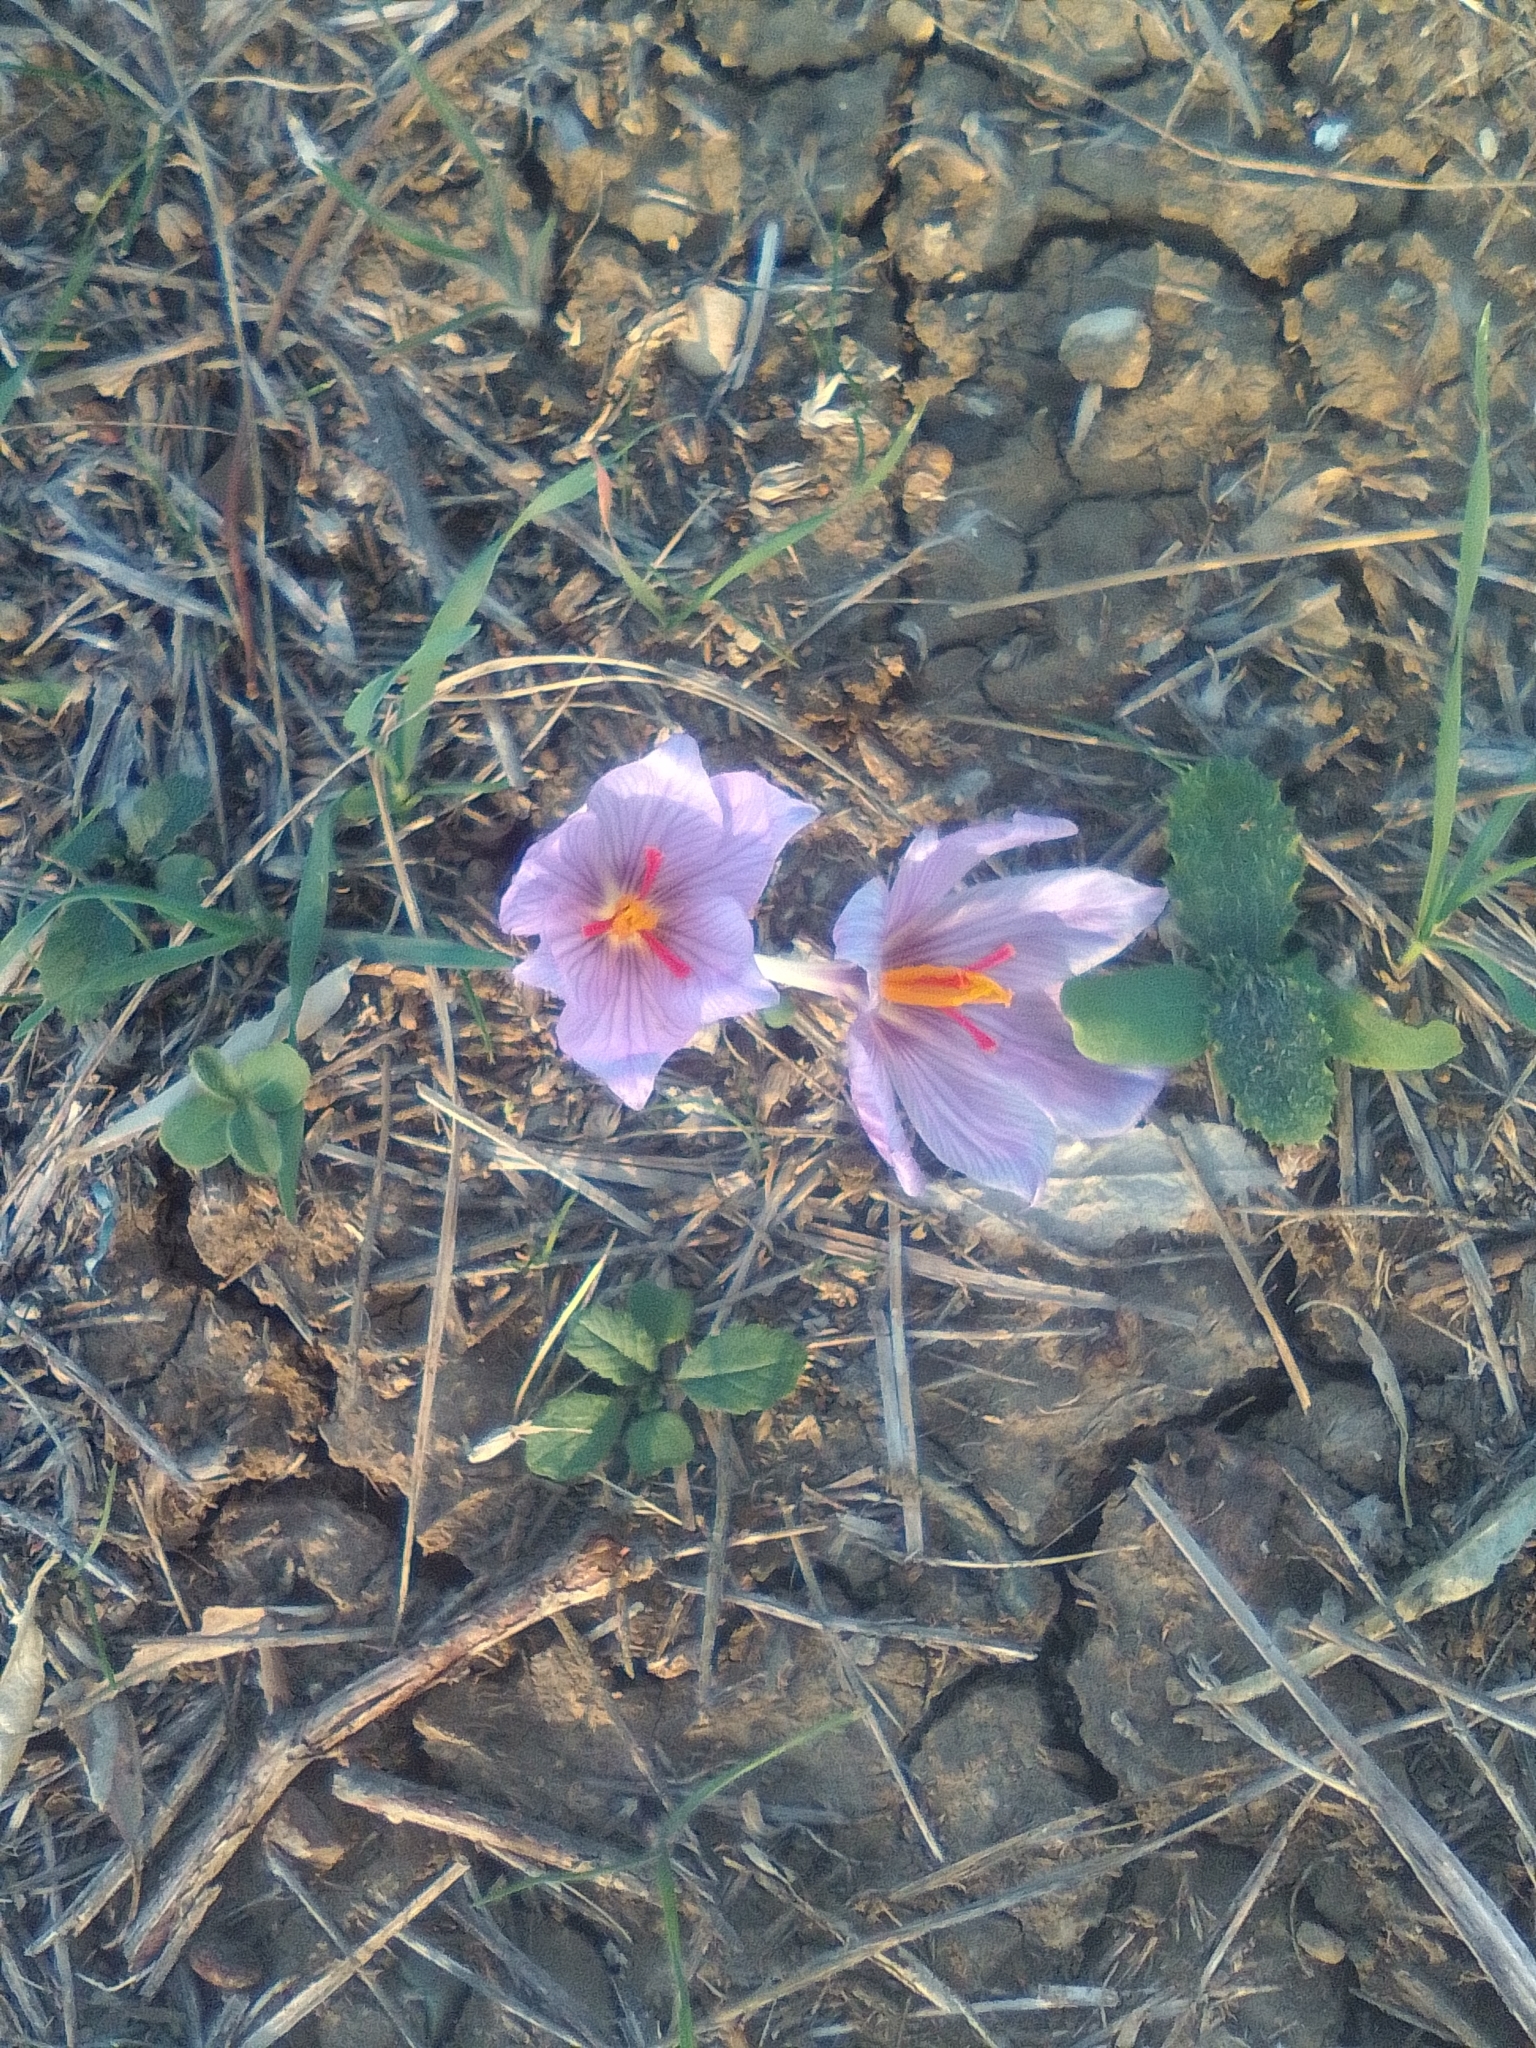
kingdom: Plantae
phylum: Tracheophyta
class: Liliopsida
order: Asparagales
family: Iridaceae
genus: Crocus
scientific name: Crocus pallasii
